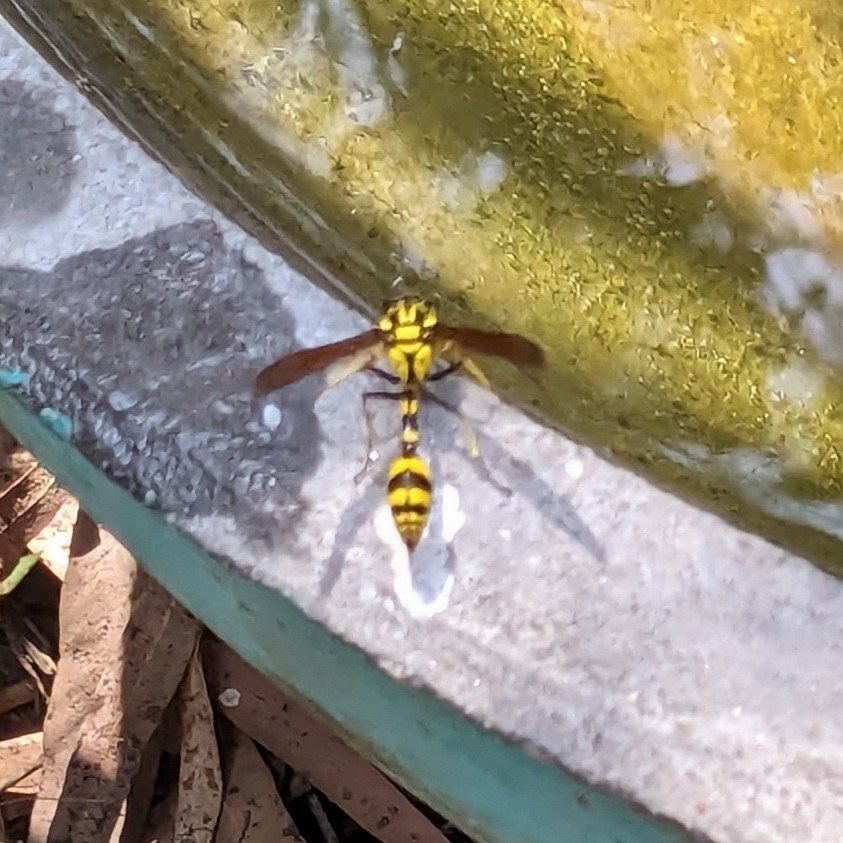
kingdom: Animalia
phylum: Arthropoda
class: Insecta
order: Hymenoptera
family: Eumenidae
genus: Phimenes
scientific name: Phimenes flavopictus
